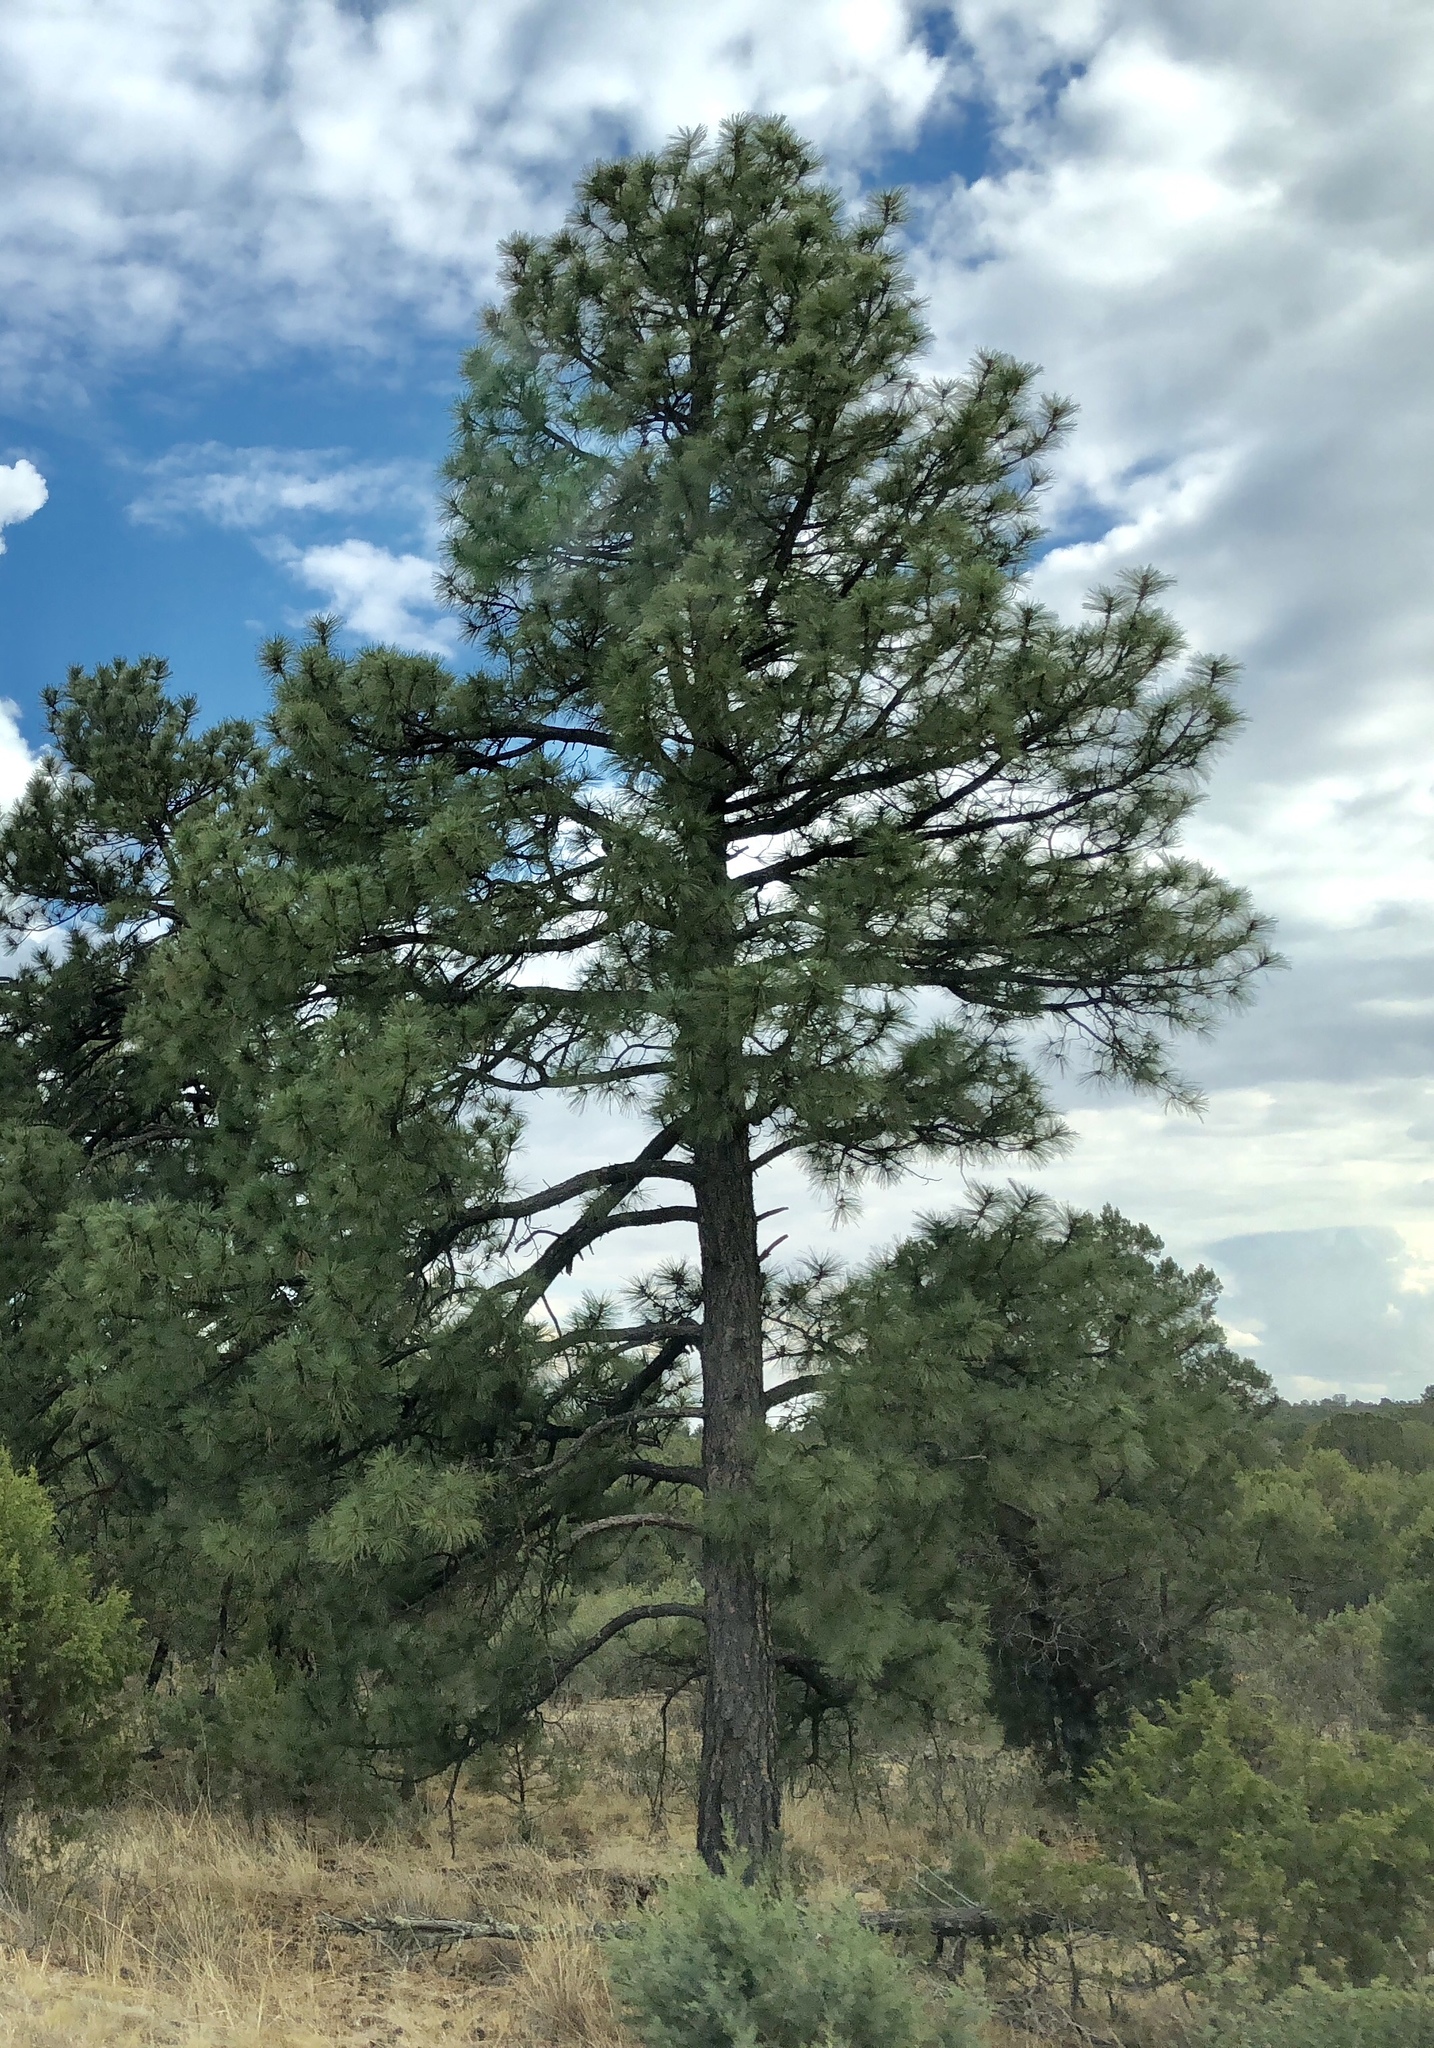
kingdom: Plantae
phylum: Tracheophyta
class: Pinopsida
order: Pinales
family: Pinaceae
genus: Pinus
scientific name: Pinus ponderosa
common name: Western yellow-pine
